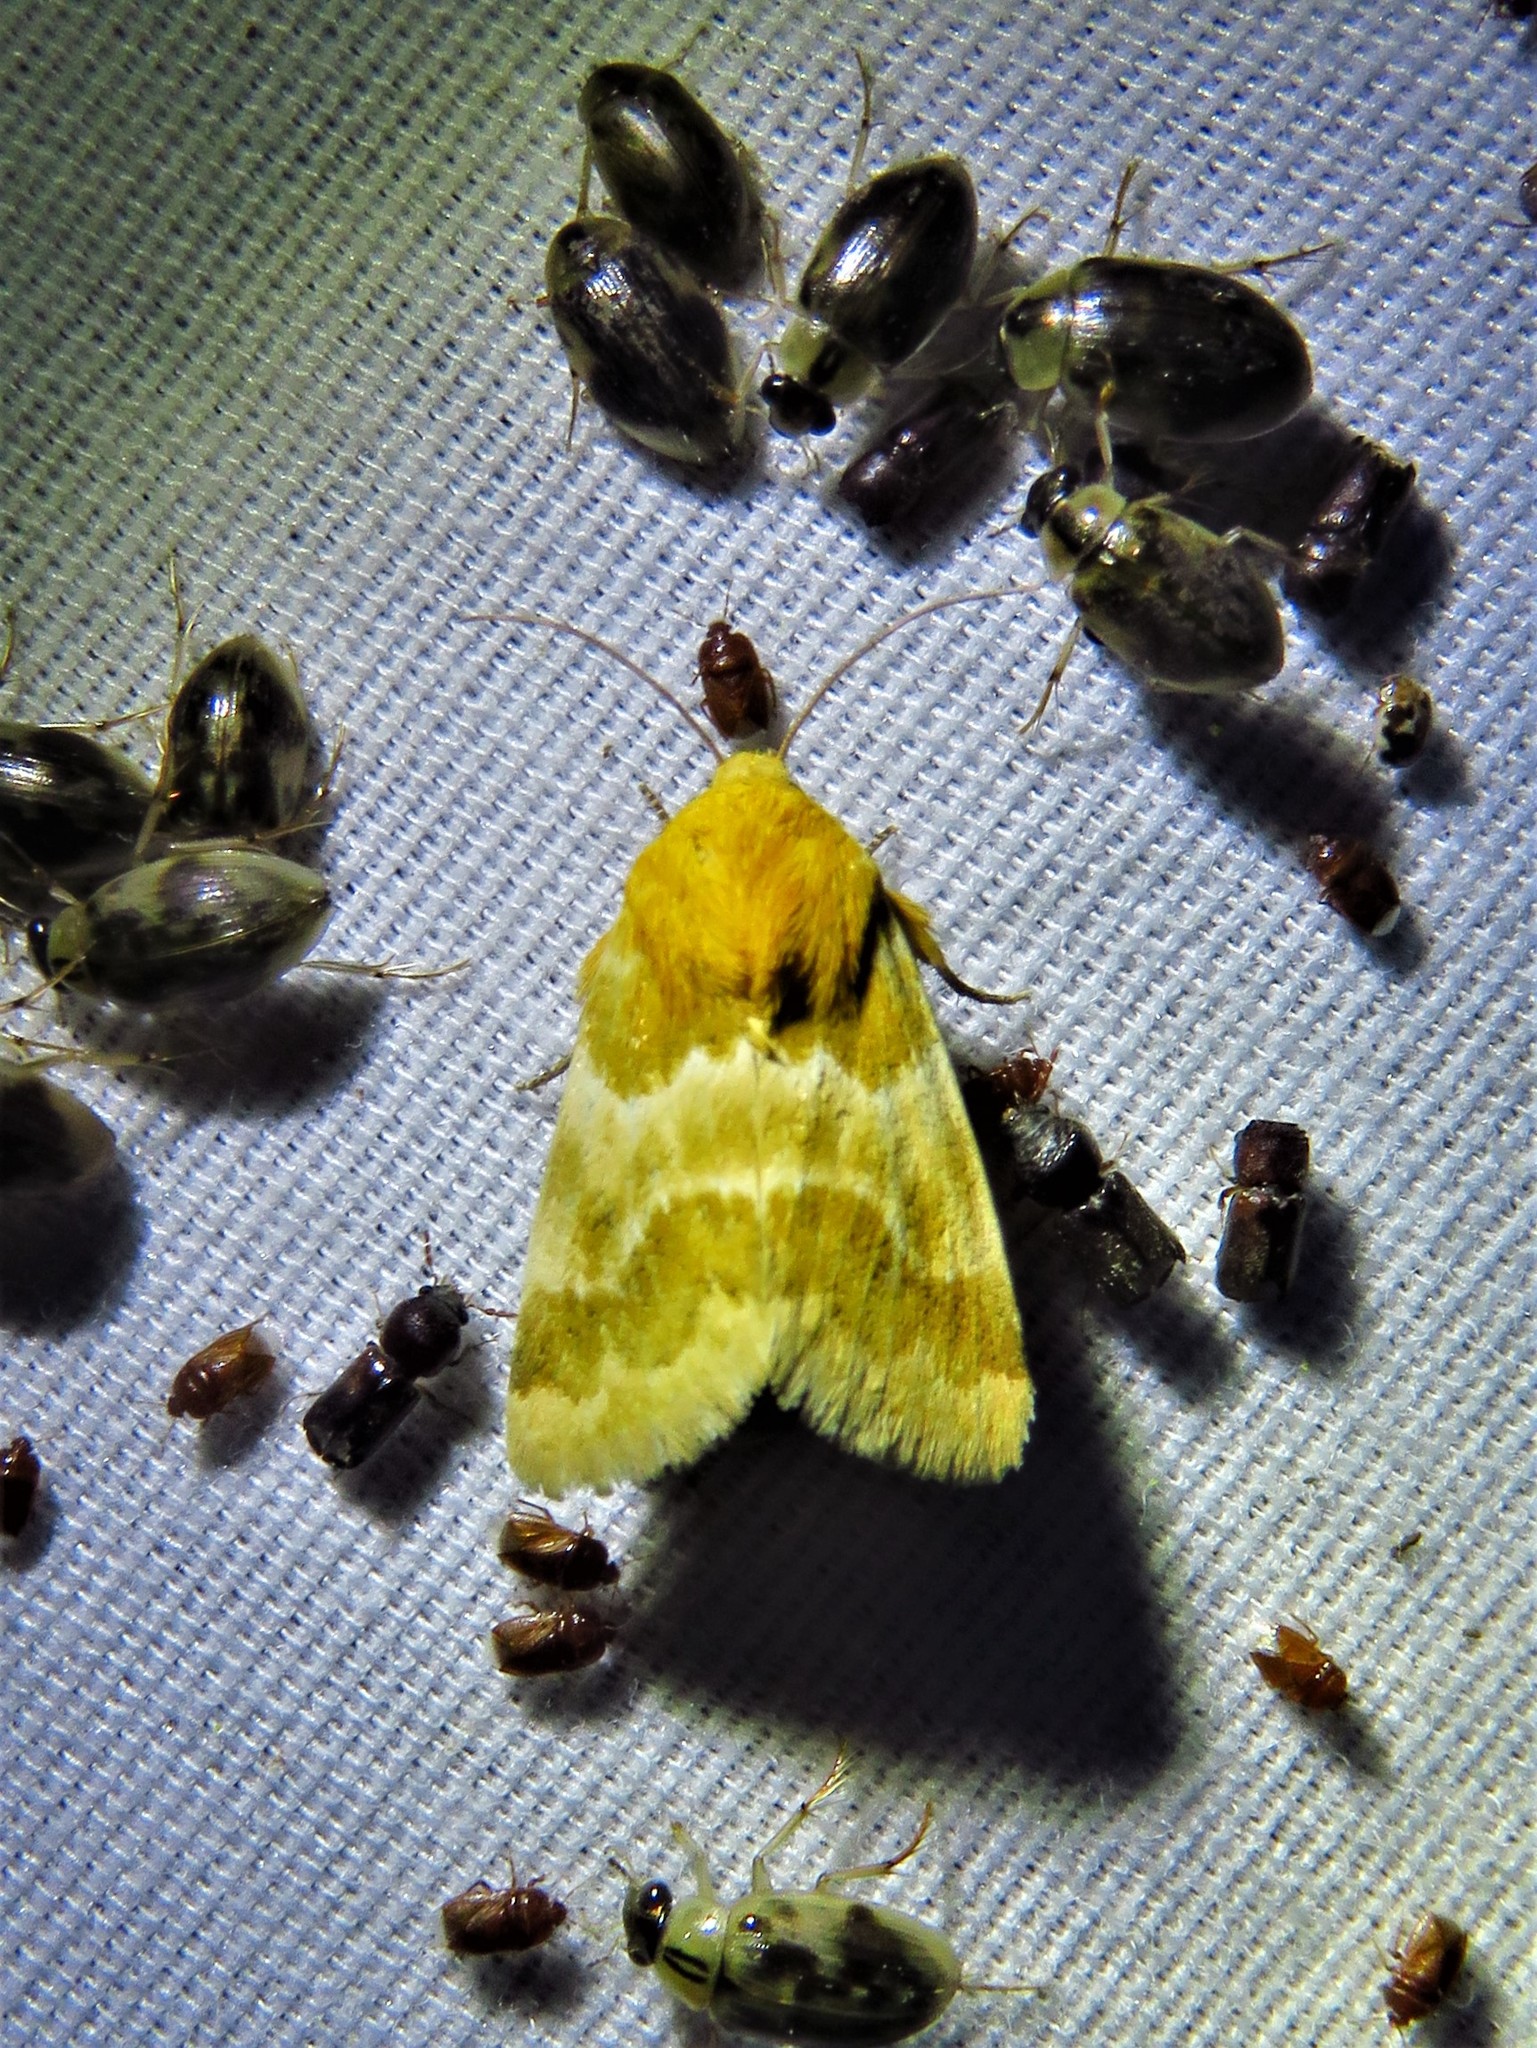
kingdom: Animalia
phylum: Arthropoda
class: Insecta
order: Lepidoptera
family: Noctuidae
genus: Schinia
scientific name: Schinia siren
